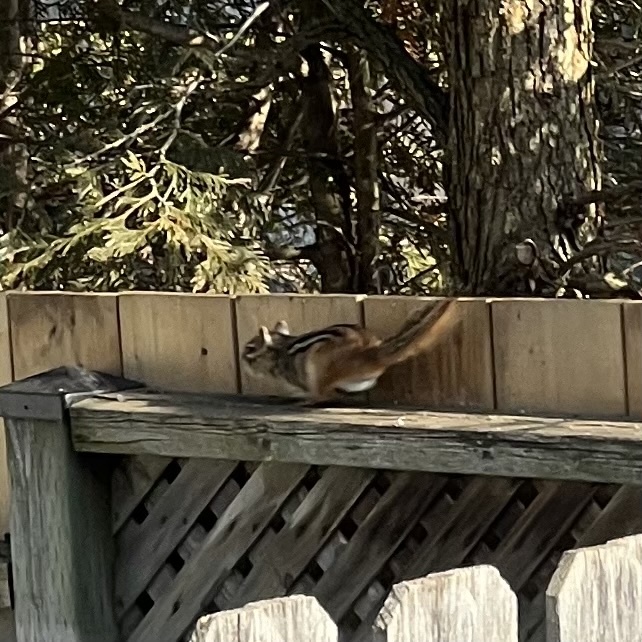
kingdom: Animalia
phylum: Chordata
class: Mammalia
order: Rodentia
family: Sciuridae
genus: Tamias
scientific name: Tamias striatus
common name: Eastern chipmunk
